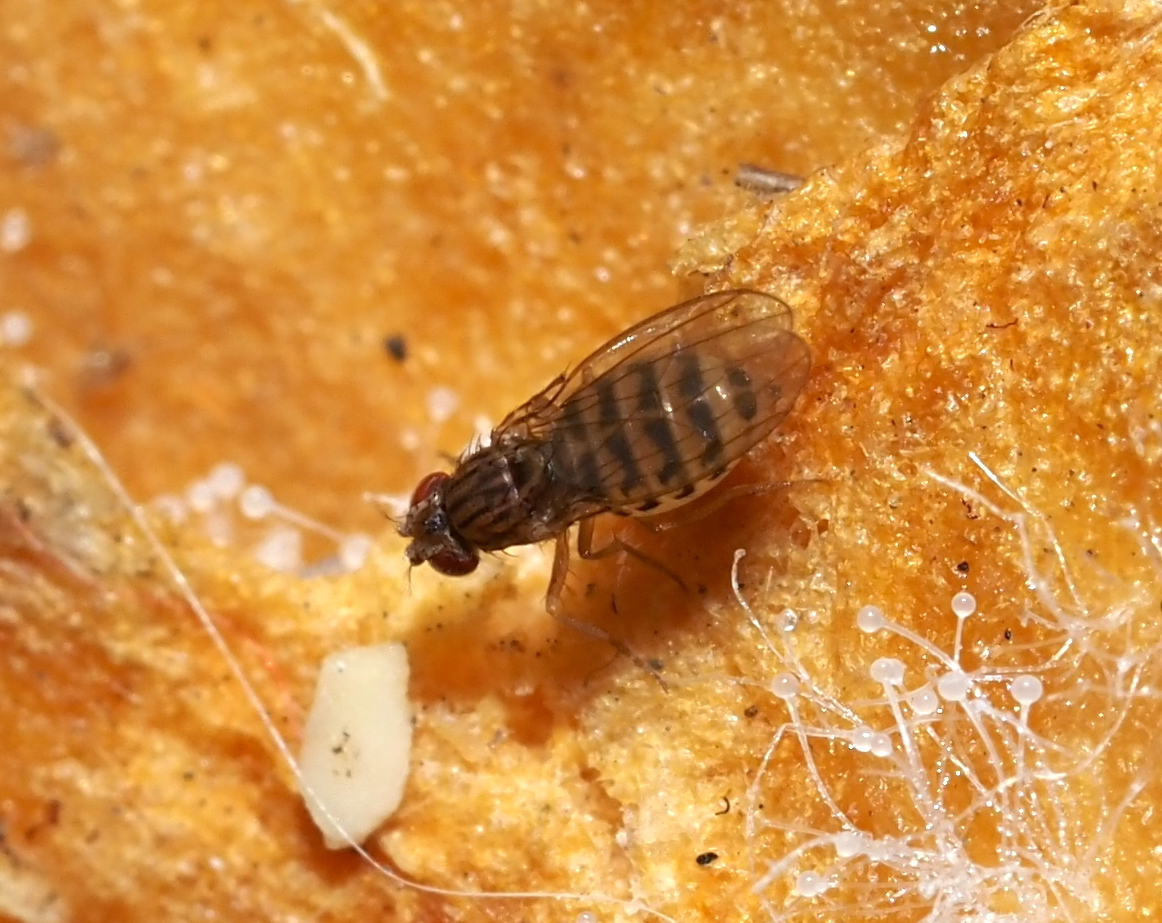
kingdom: Animalia
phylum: Arthropoda
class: Insecta
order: Diptera
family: Drosophilidae
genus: Drosophila
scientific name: Drosophila busckii
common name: Pomace fly
